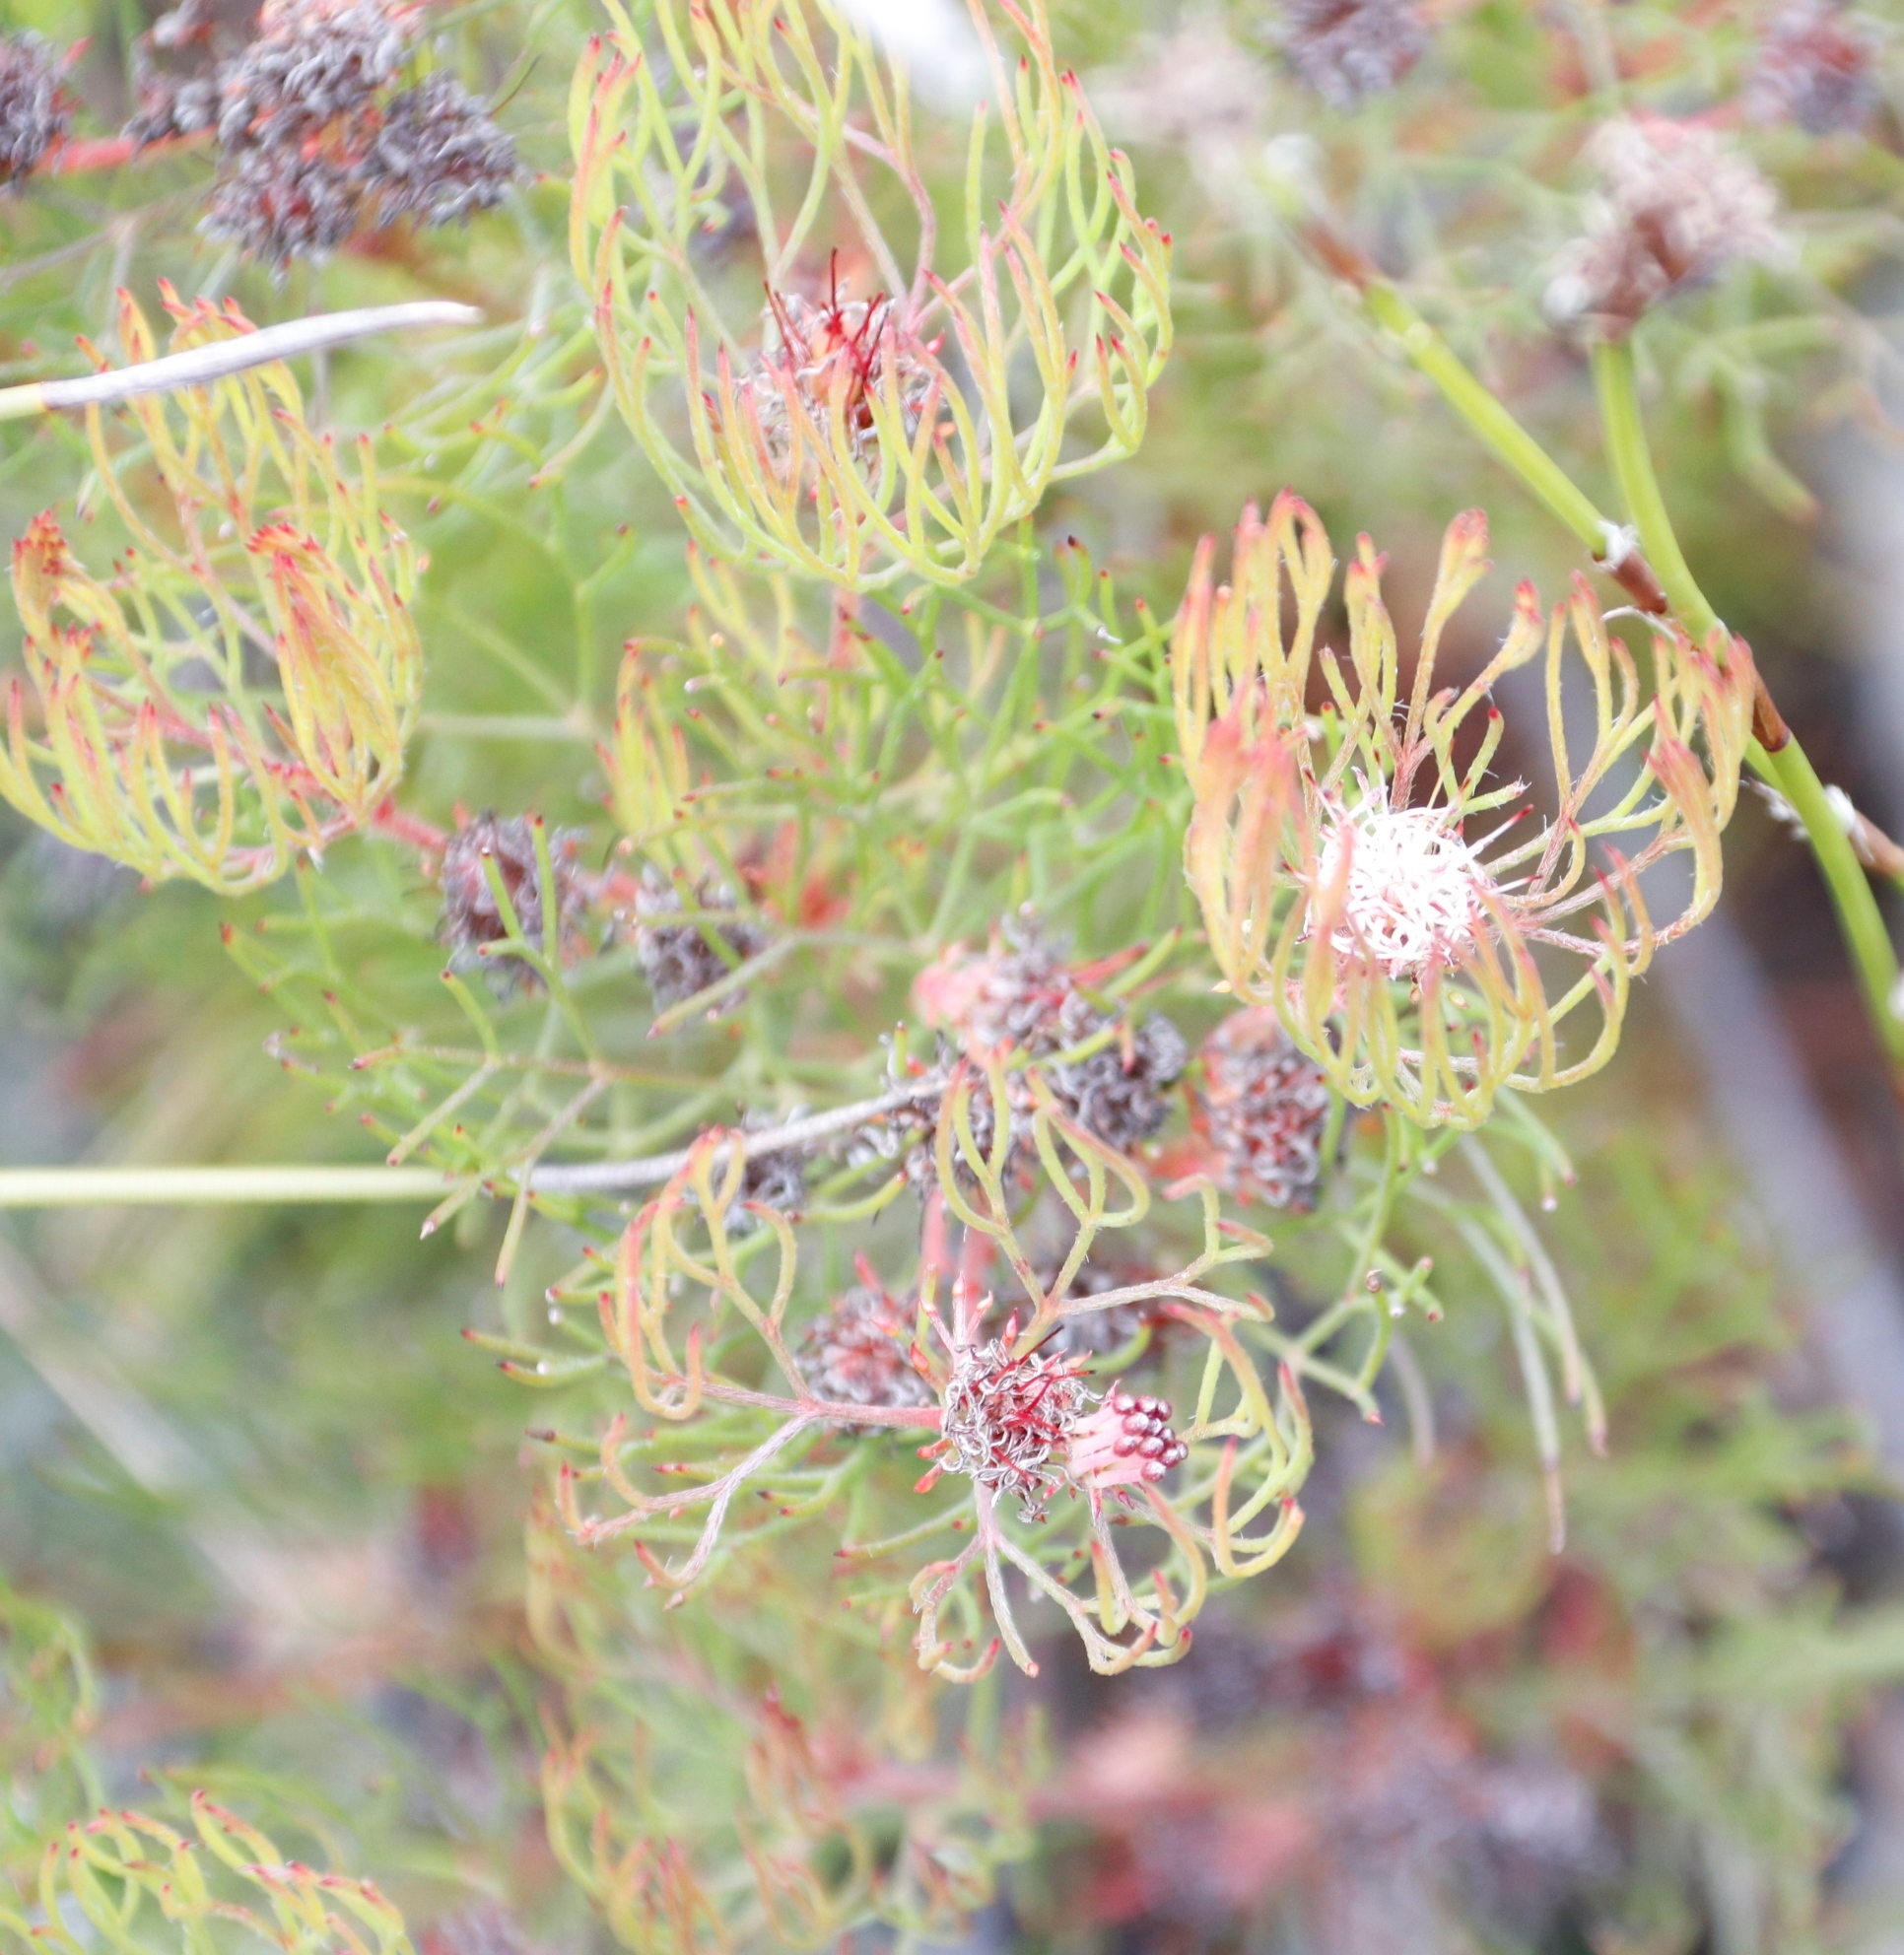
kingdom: Plantae
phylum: Tracheophyta
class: Magnoliopsida
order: Proteales
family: Proteaceae
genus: Serruria
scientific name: Serruria fasciflora
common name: Common pin spiderhead
